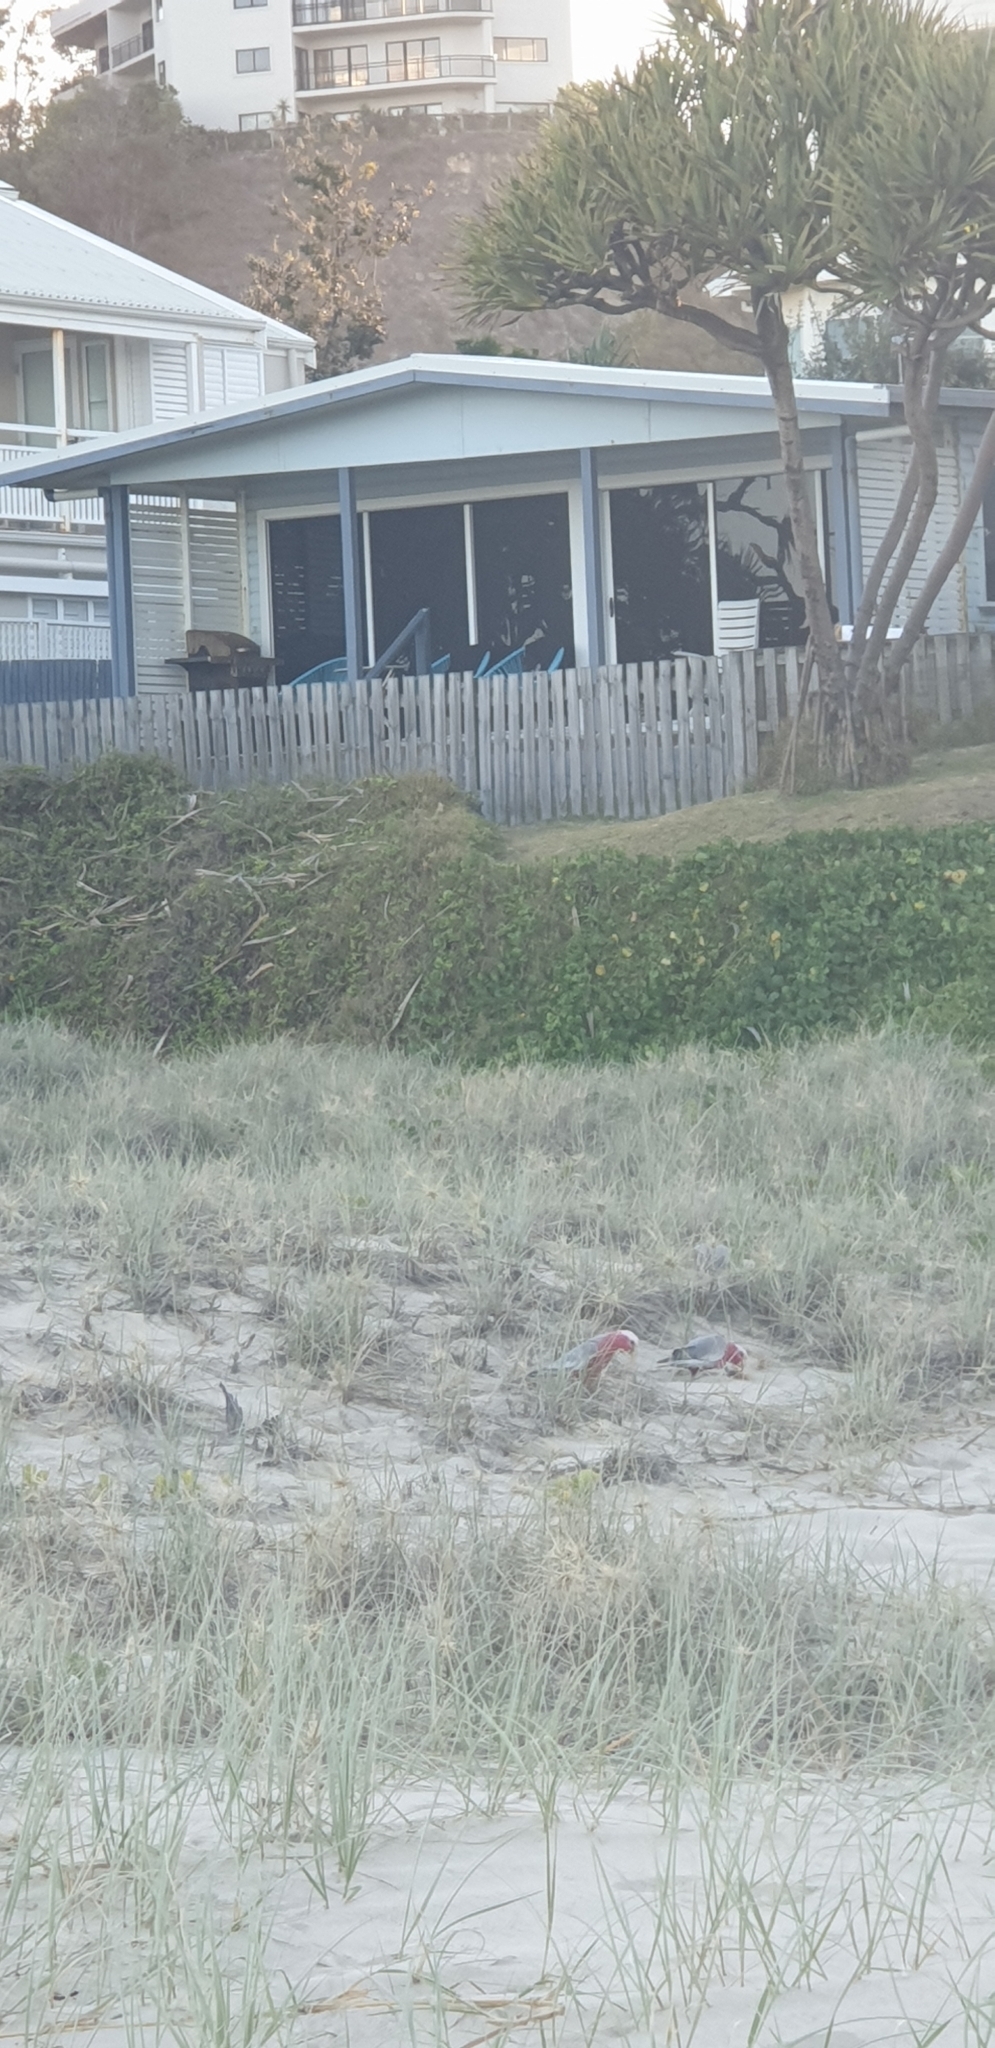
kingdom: Animalia
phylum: Chordata
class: Aves
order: Psittaciformes
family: Psittacidae
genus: Eolophus
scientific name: Eolophus roseicapilla
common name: Galah
